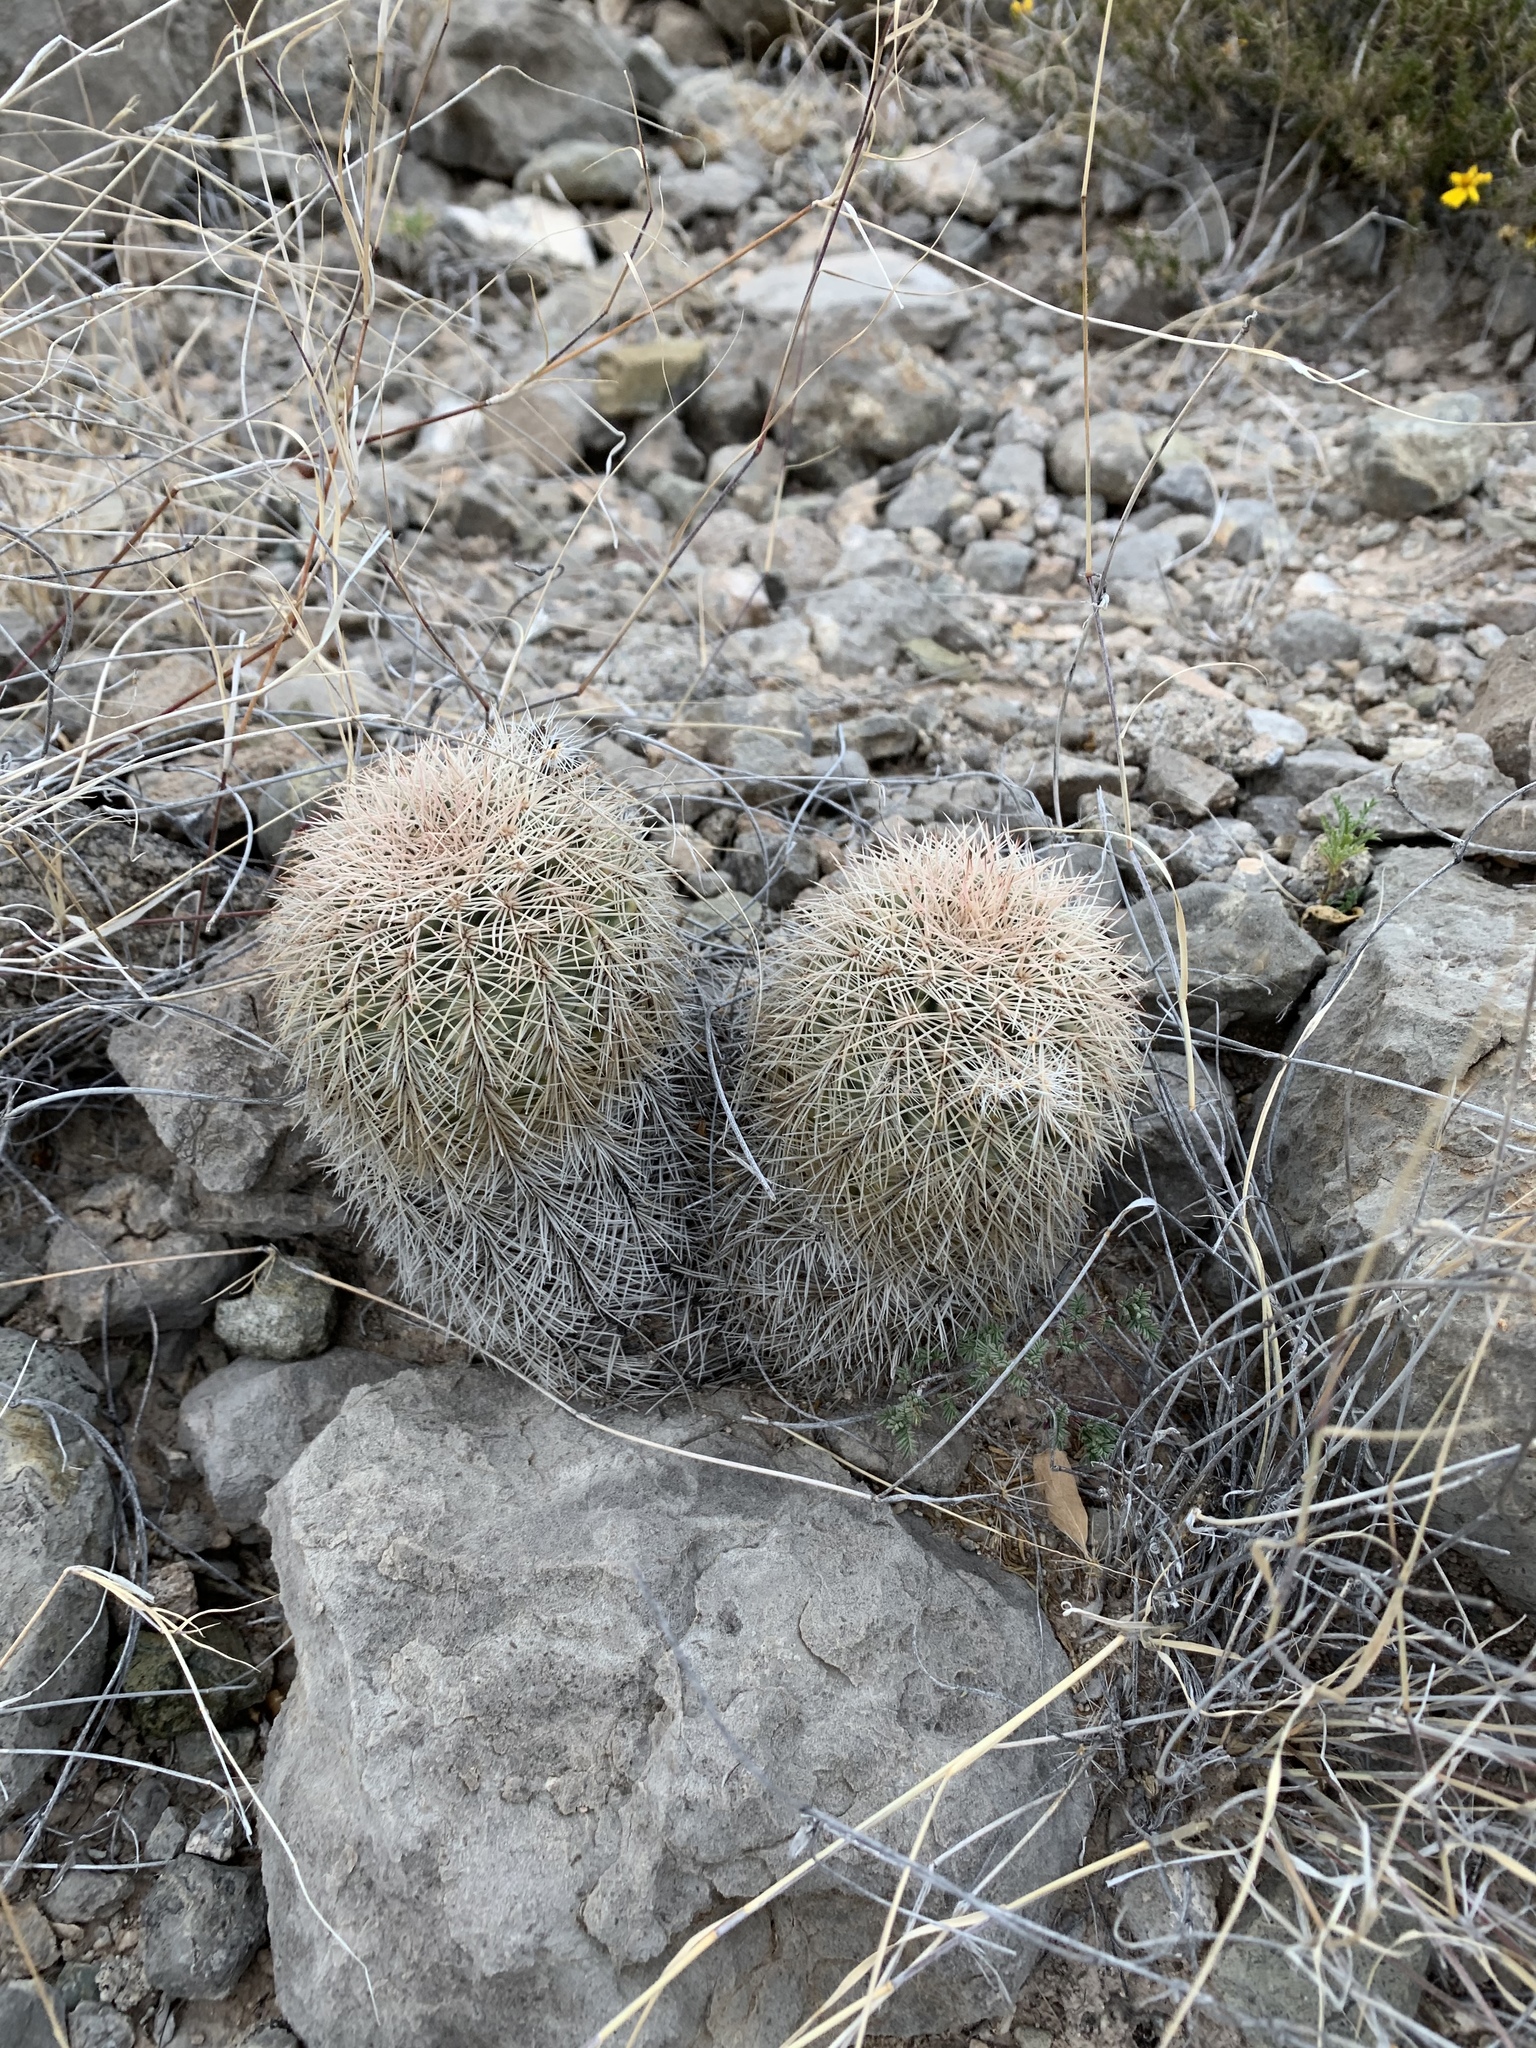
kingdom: Plantae
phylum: Tracheophyta
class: Magnoliopsida
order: Caryophyllales
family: Cactaceae
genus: Echinocereus
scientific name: Echinocereus dasyacanthus
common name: Spiny hedgehog cactus
